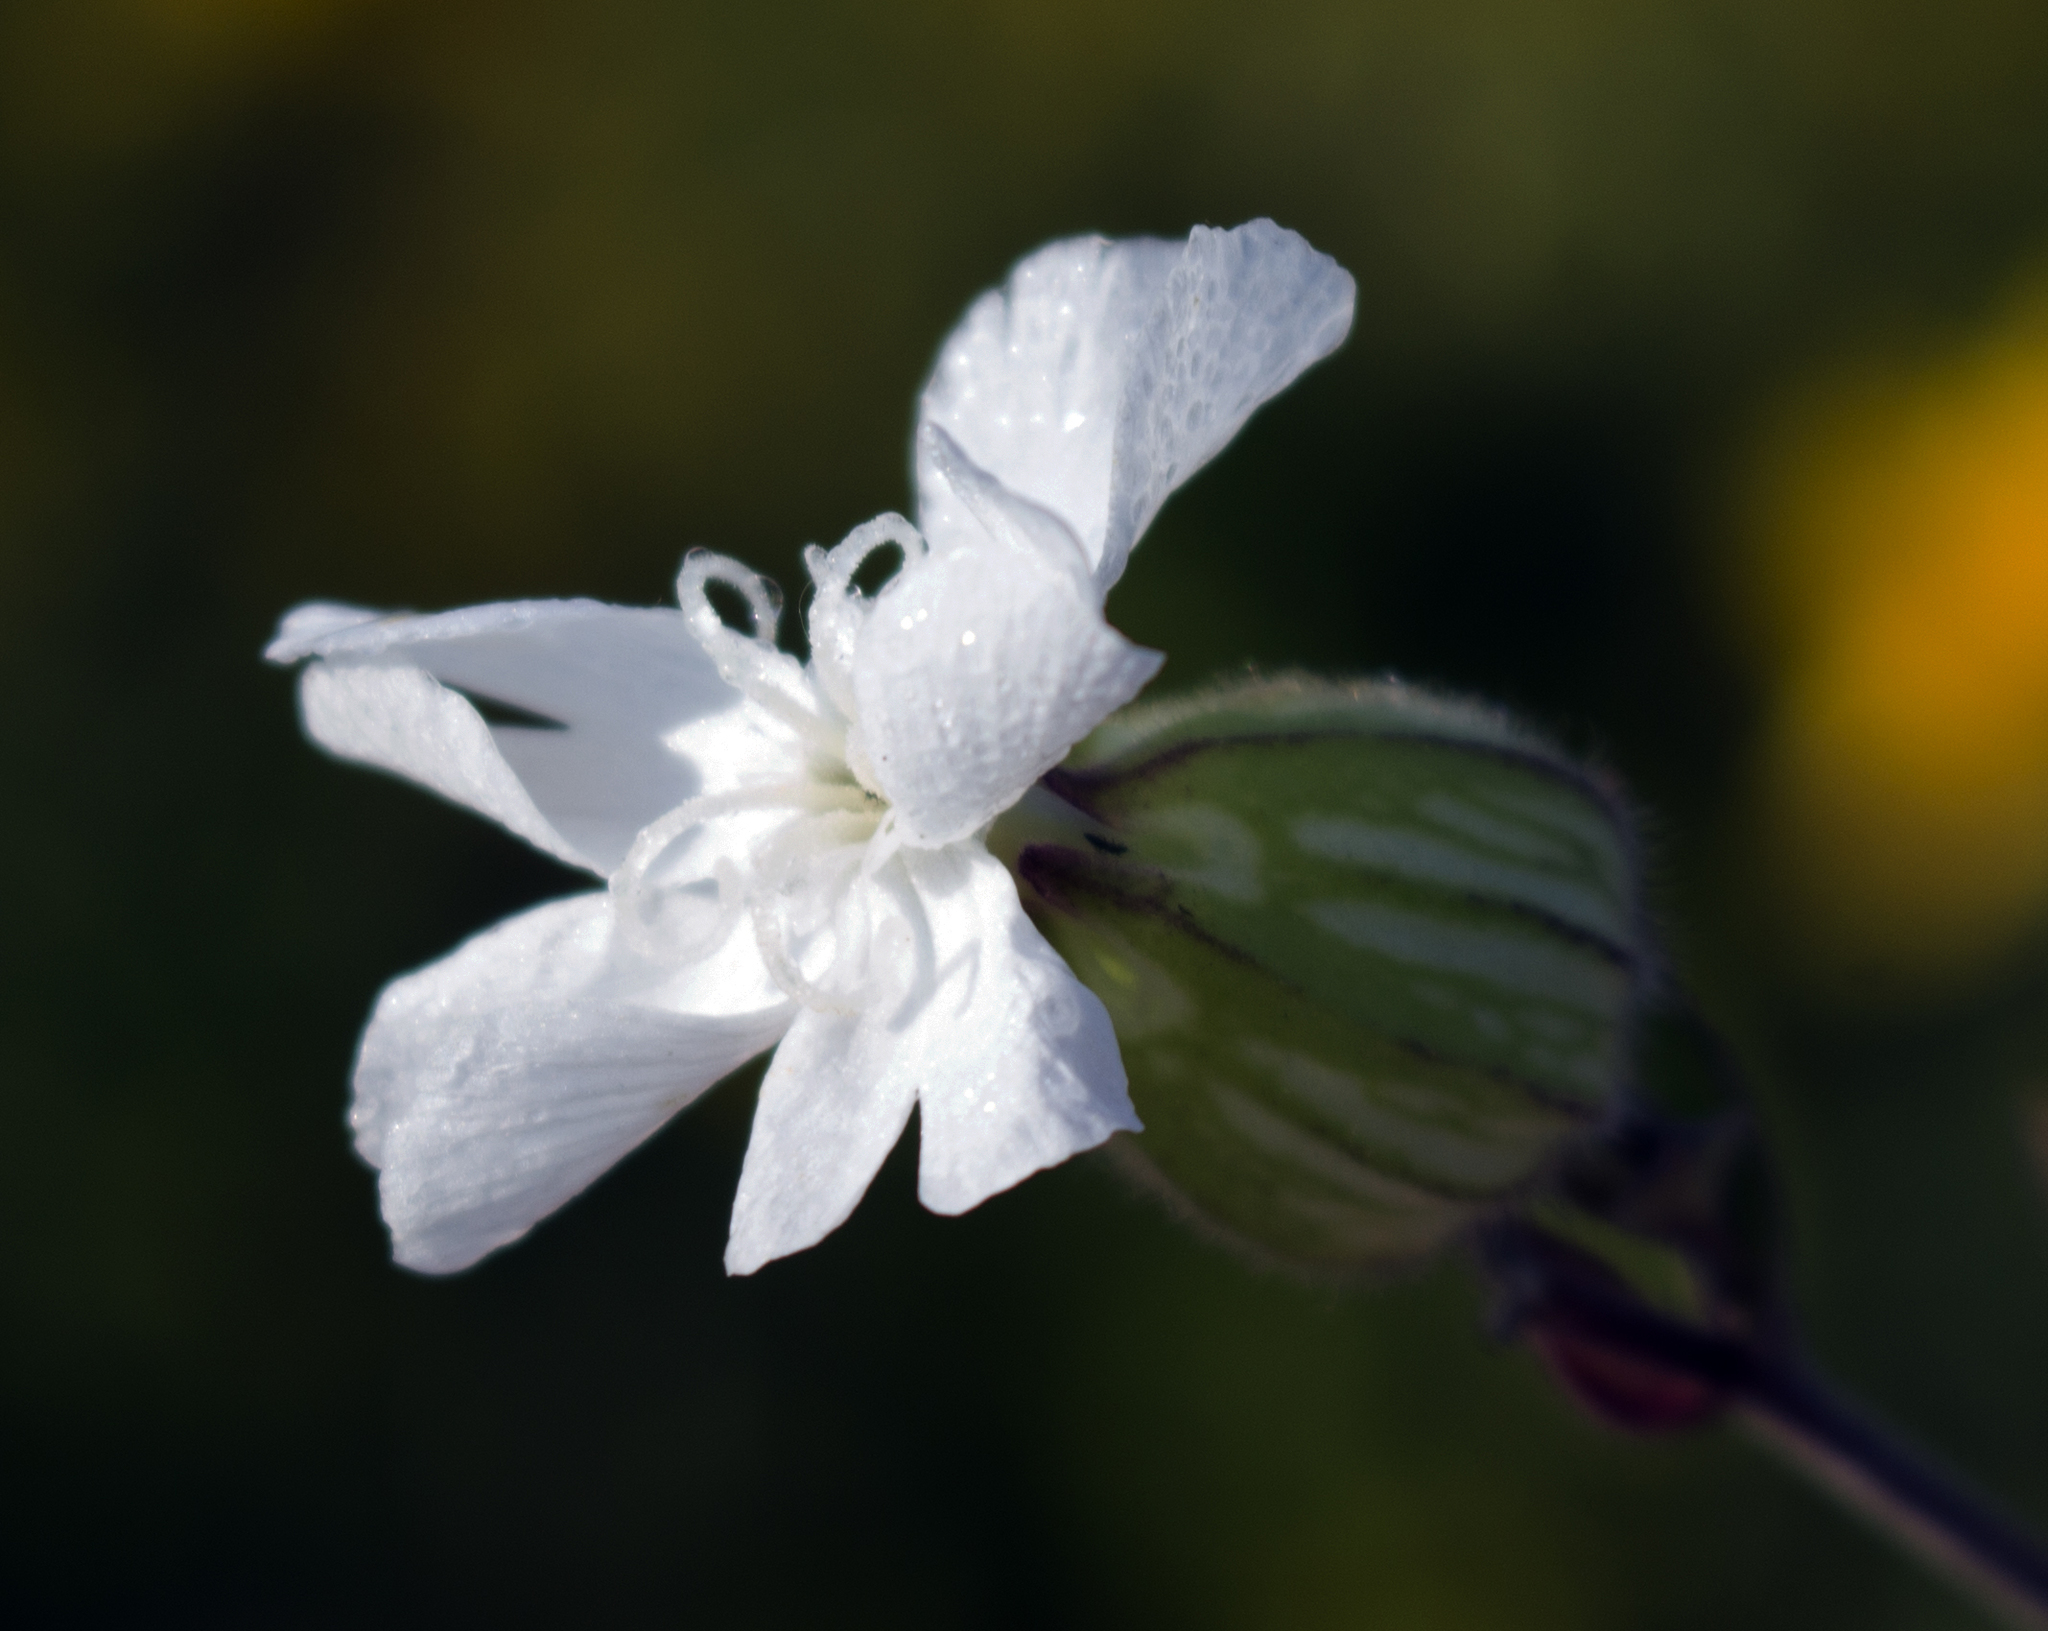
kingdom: Plantae
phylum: Tracheophyta
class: Magnoliopsida
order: Caryophyllales
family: Caryophyllaceae
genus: Silene
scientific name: Silene latifolia
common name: White campion
